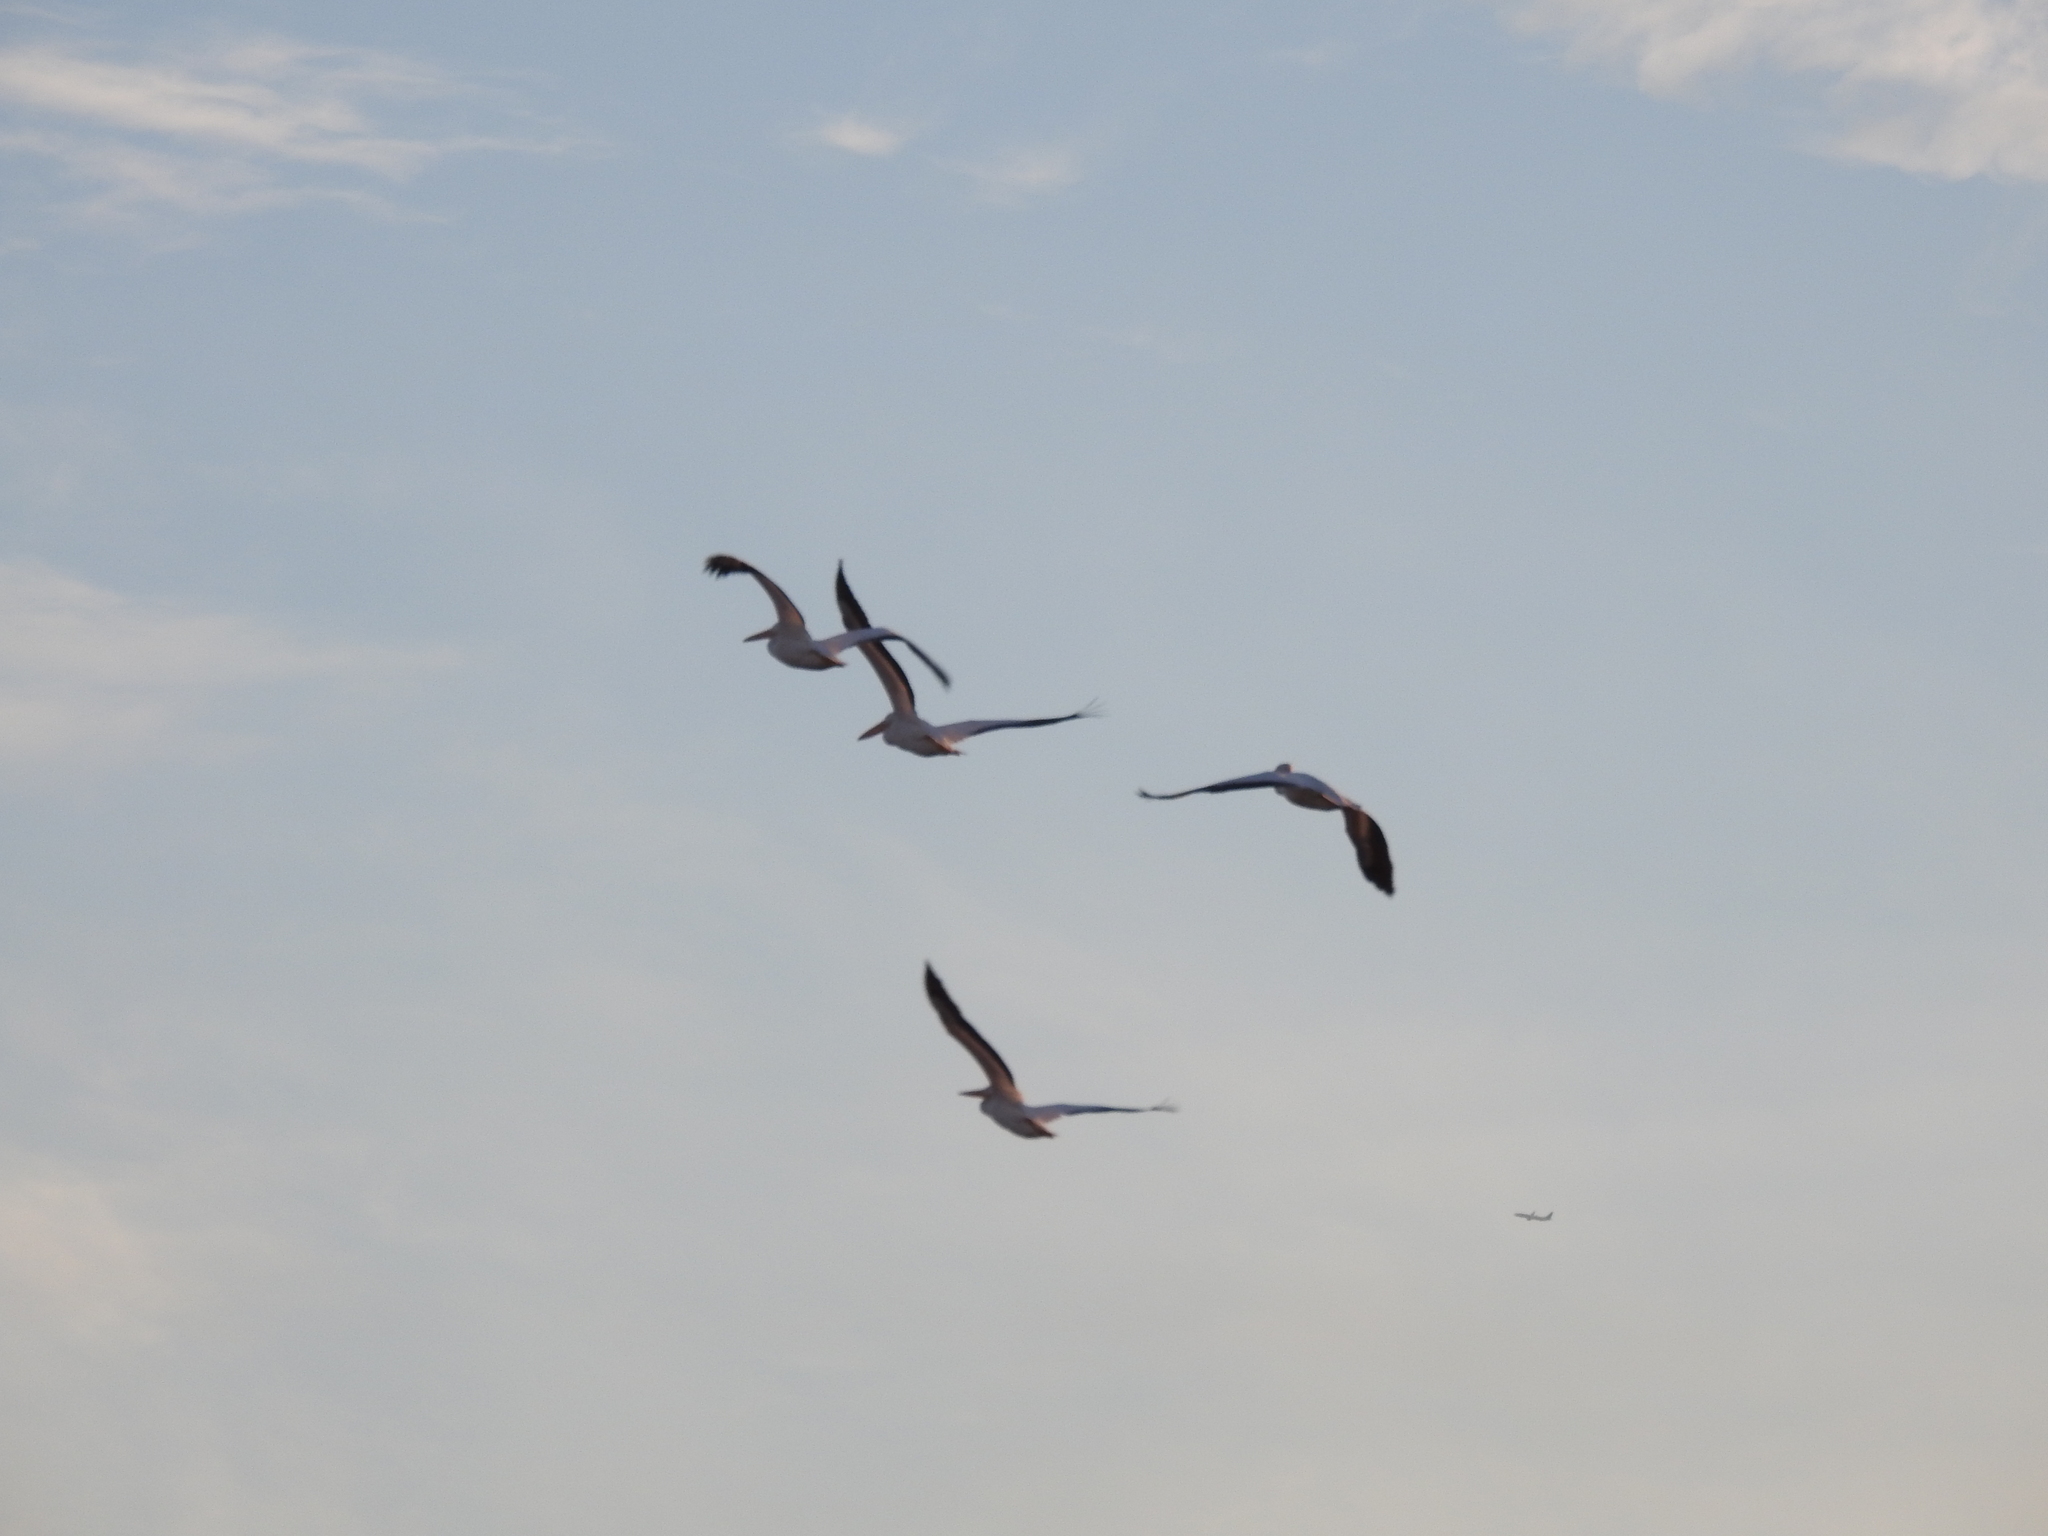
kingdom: Animalia
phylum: Chordata
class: Aves
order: Pelecaniformes
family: Pelecanidae
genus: Pelecanus
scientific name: Pelecanus erythrorhynchos
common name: American white pelican
